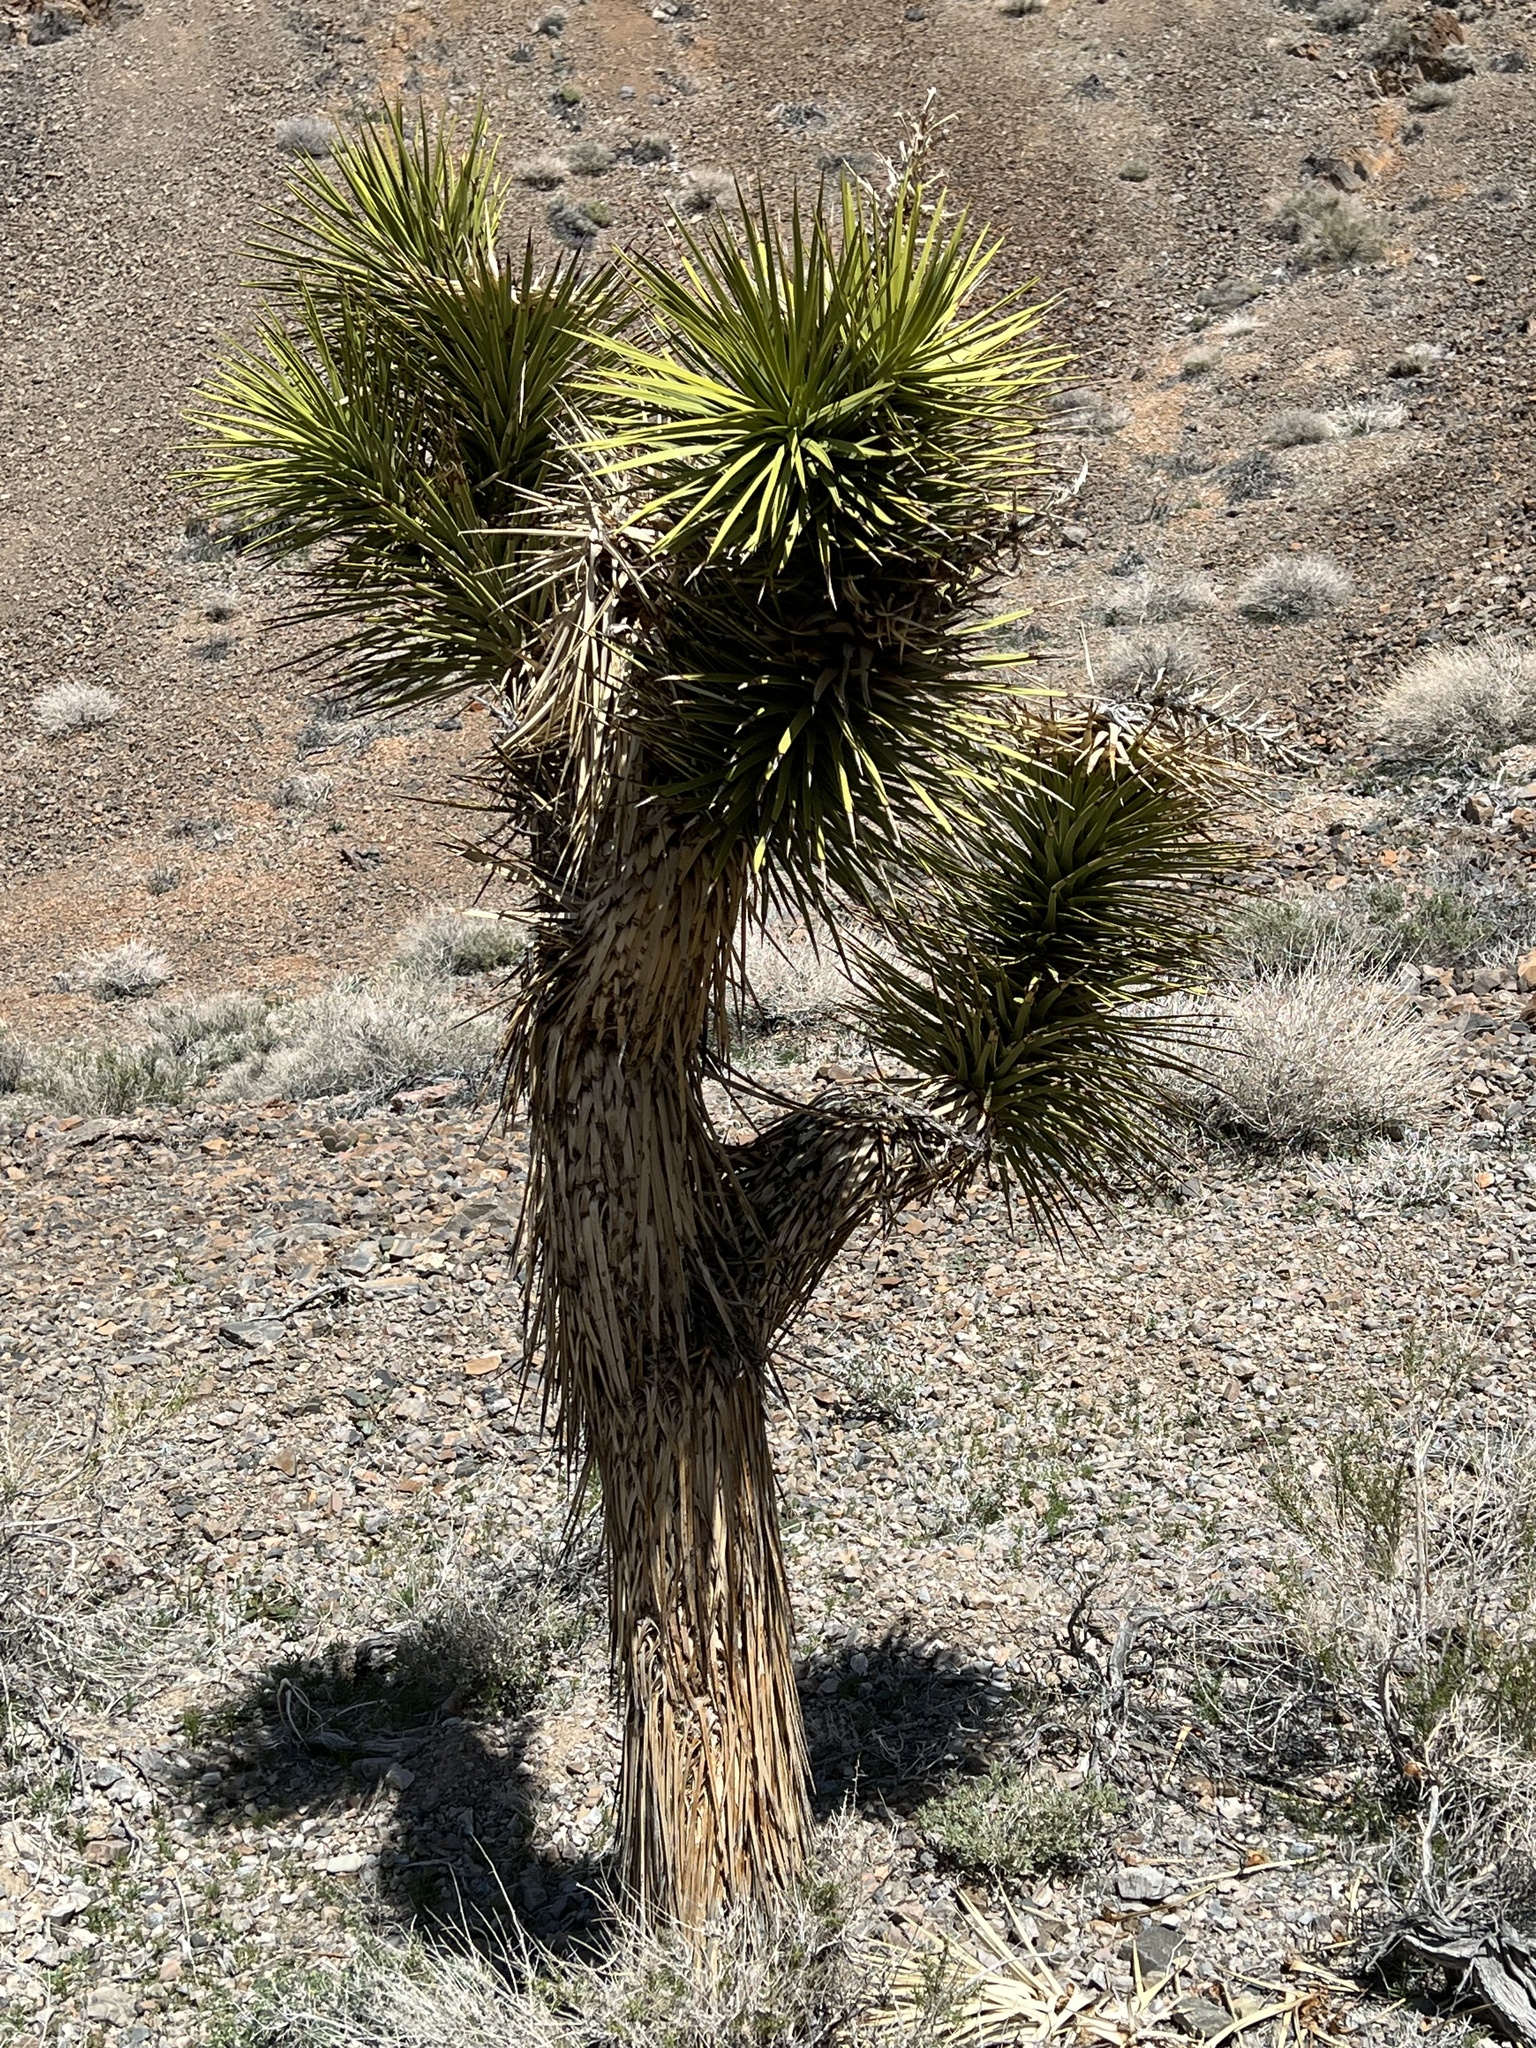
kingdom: Plantae
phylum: Tracheophyta
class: Liliopsida
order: Asparagales
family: Asparagaceae
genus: Yucca
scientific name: Yucca brevifolia
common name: Joshua tree
